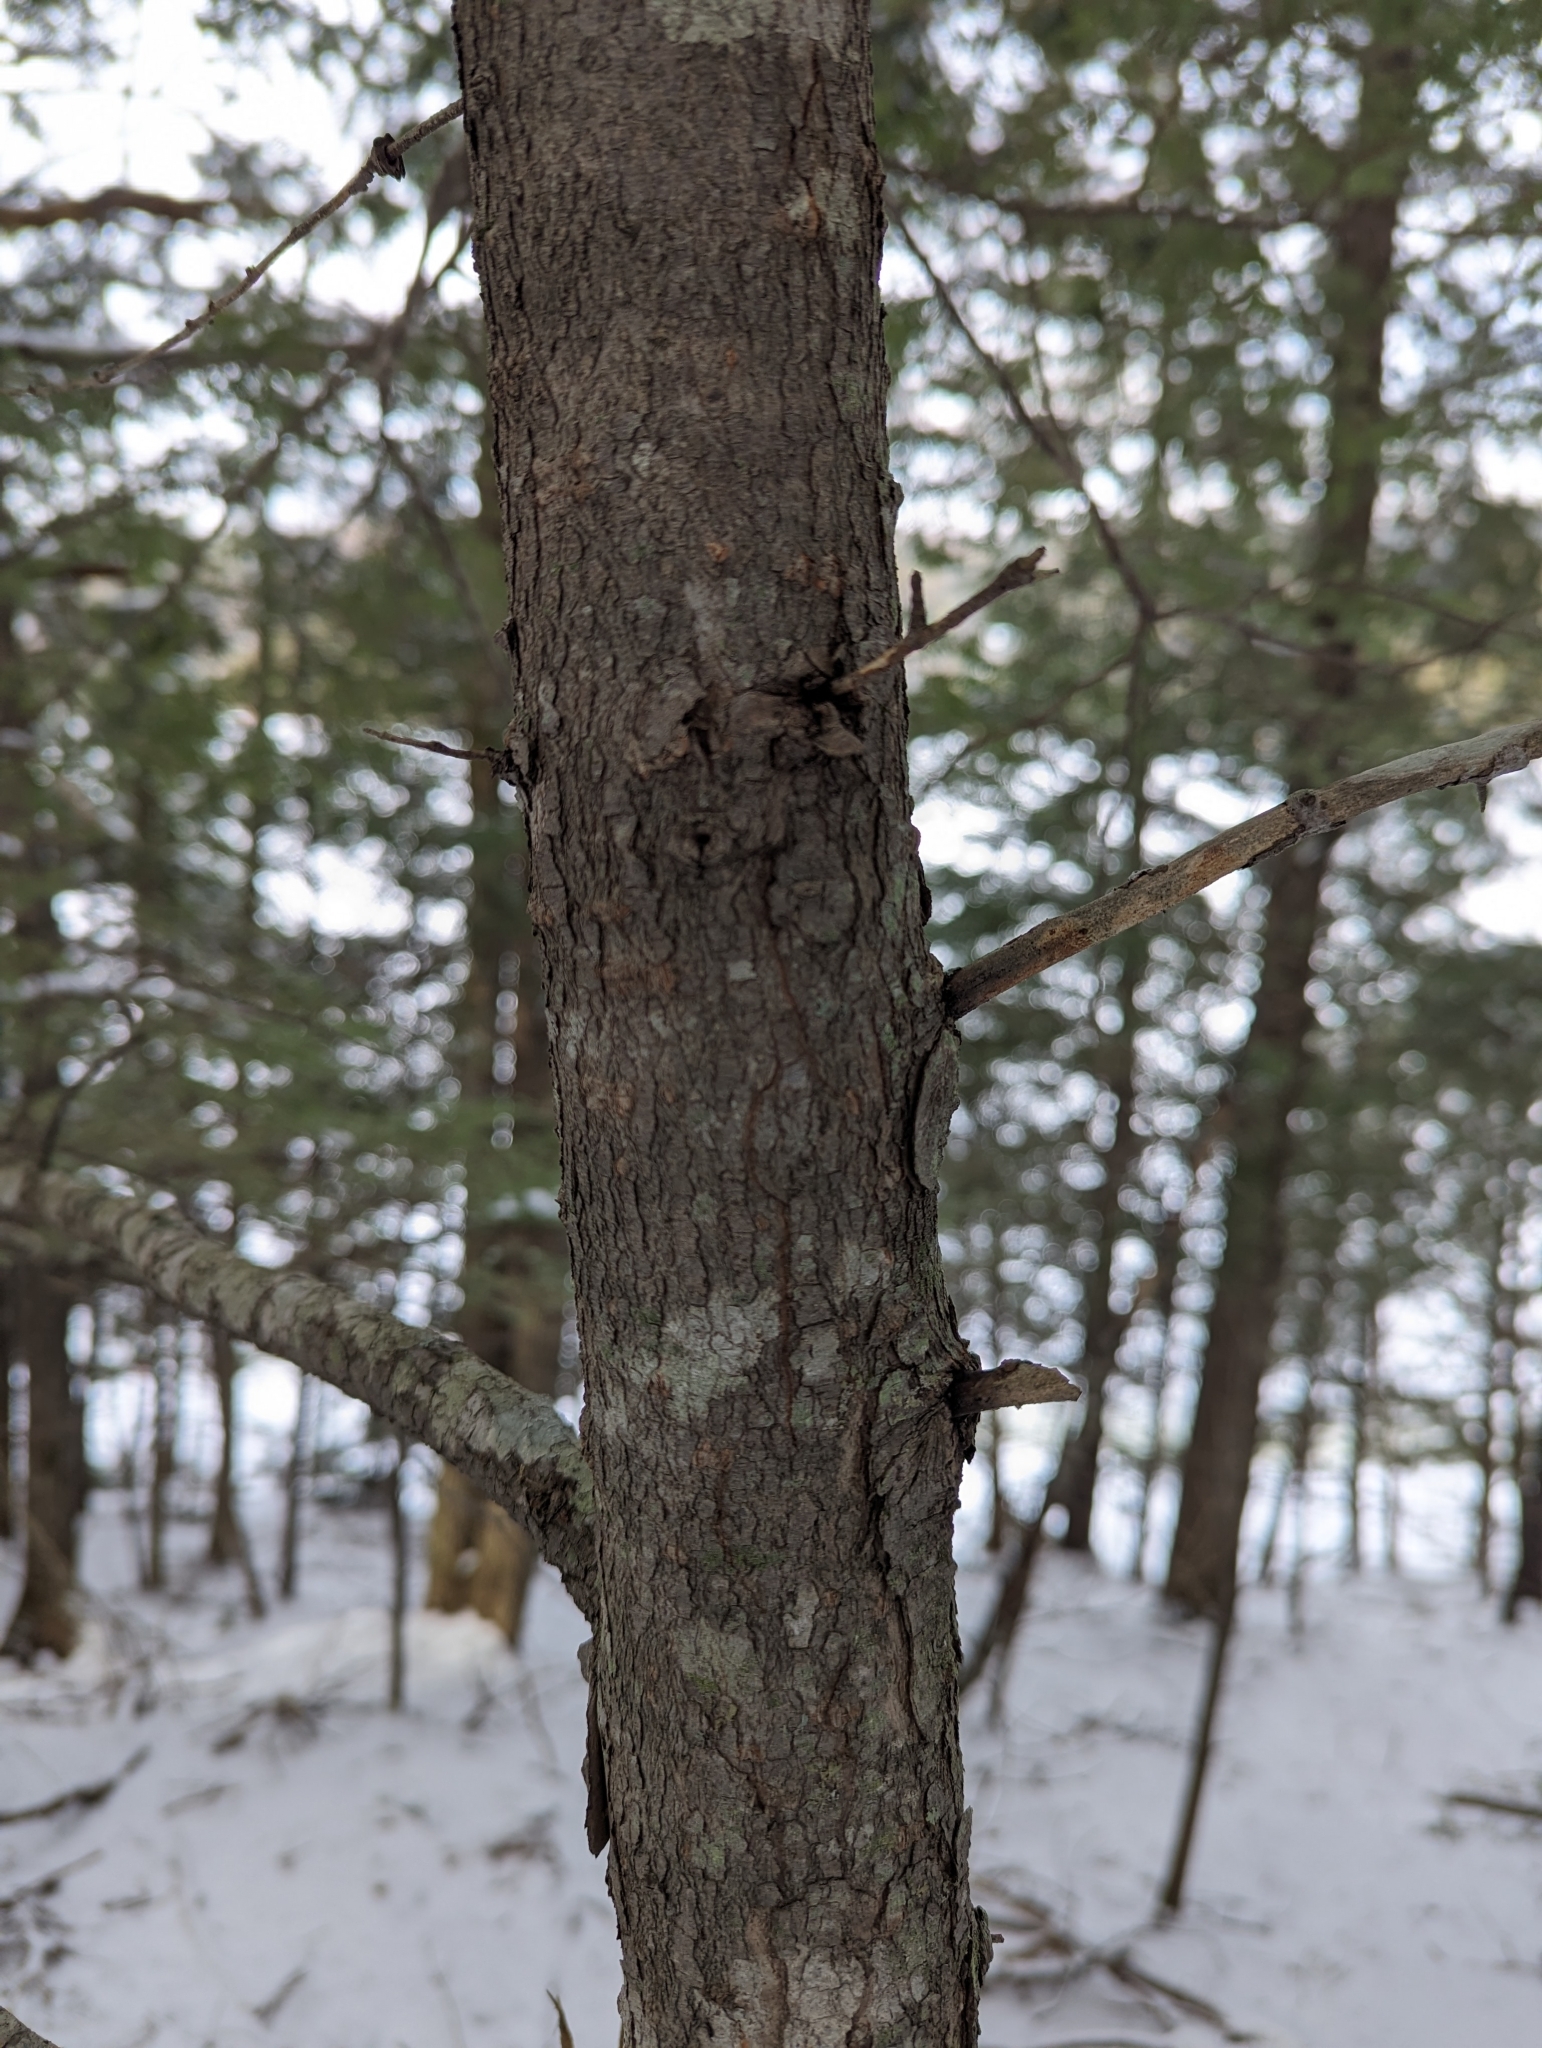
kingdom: Plantae
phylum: Tracheophyta
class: Pinopsida
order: Pinales
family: Pinaceae
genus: Tsuga
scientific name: Tsuga canadensis
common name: Eastern hemlock
